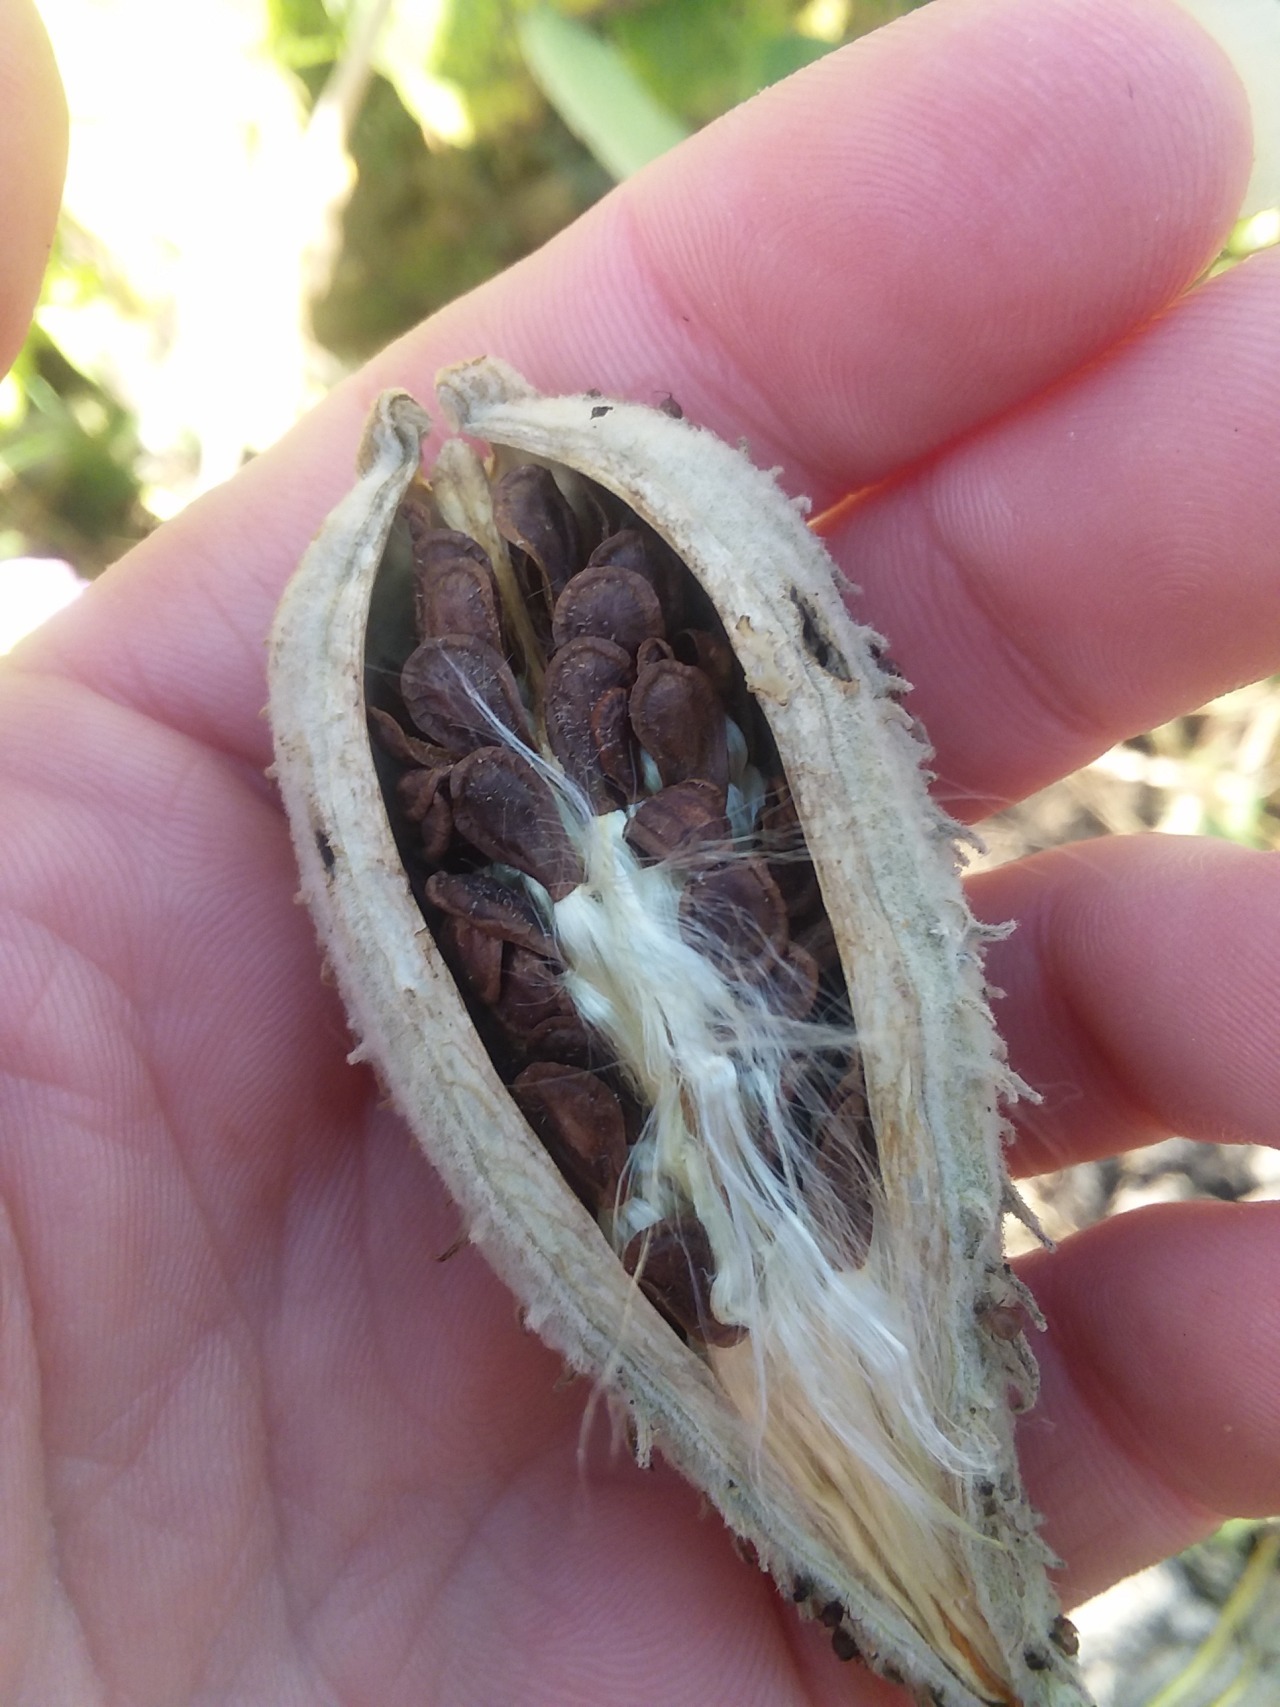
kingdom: Plantae
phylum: Tracheophyta
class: Magnoliopsida
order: Gentianales
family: Apocynaceae
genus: Asclepias
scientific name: Asclepias syriaca
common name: Common milkweed
